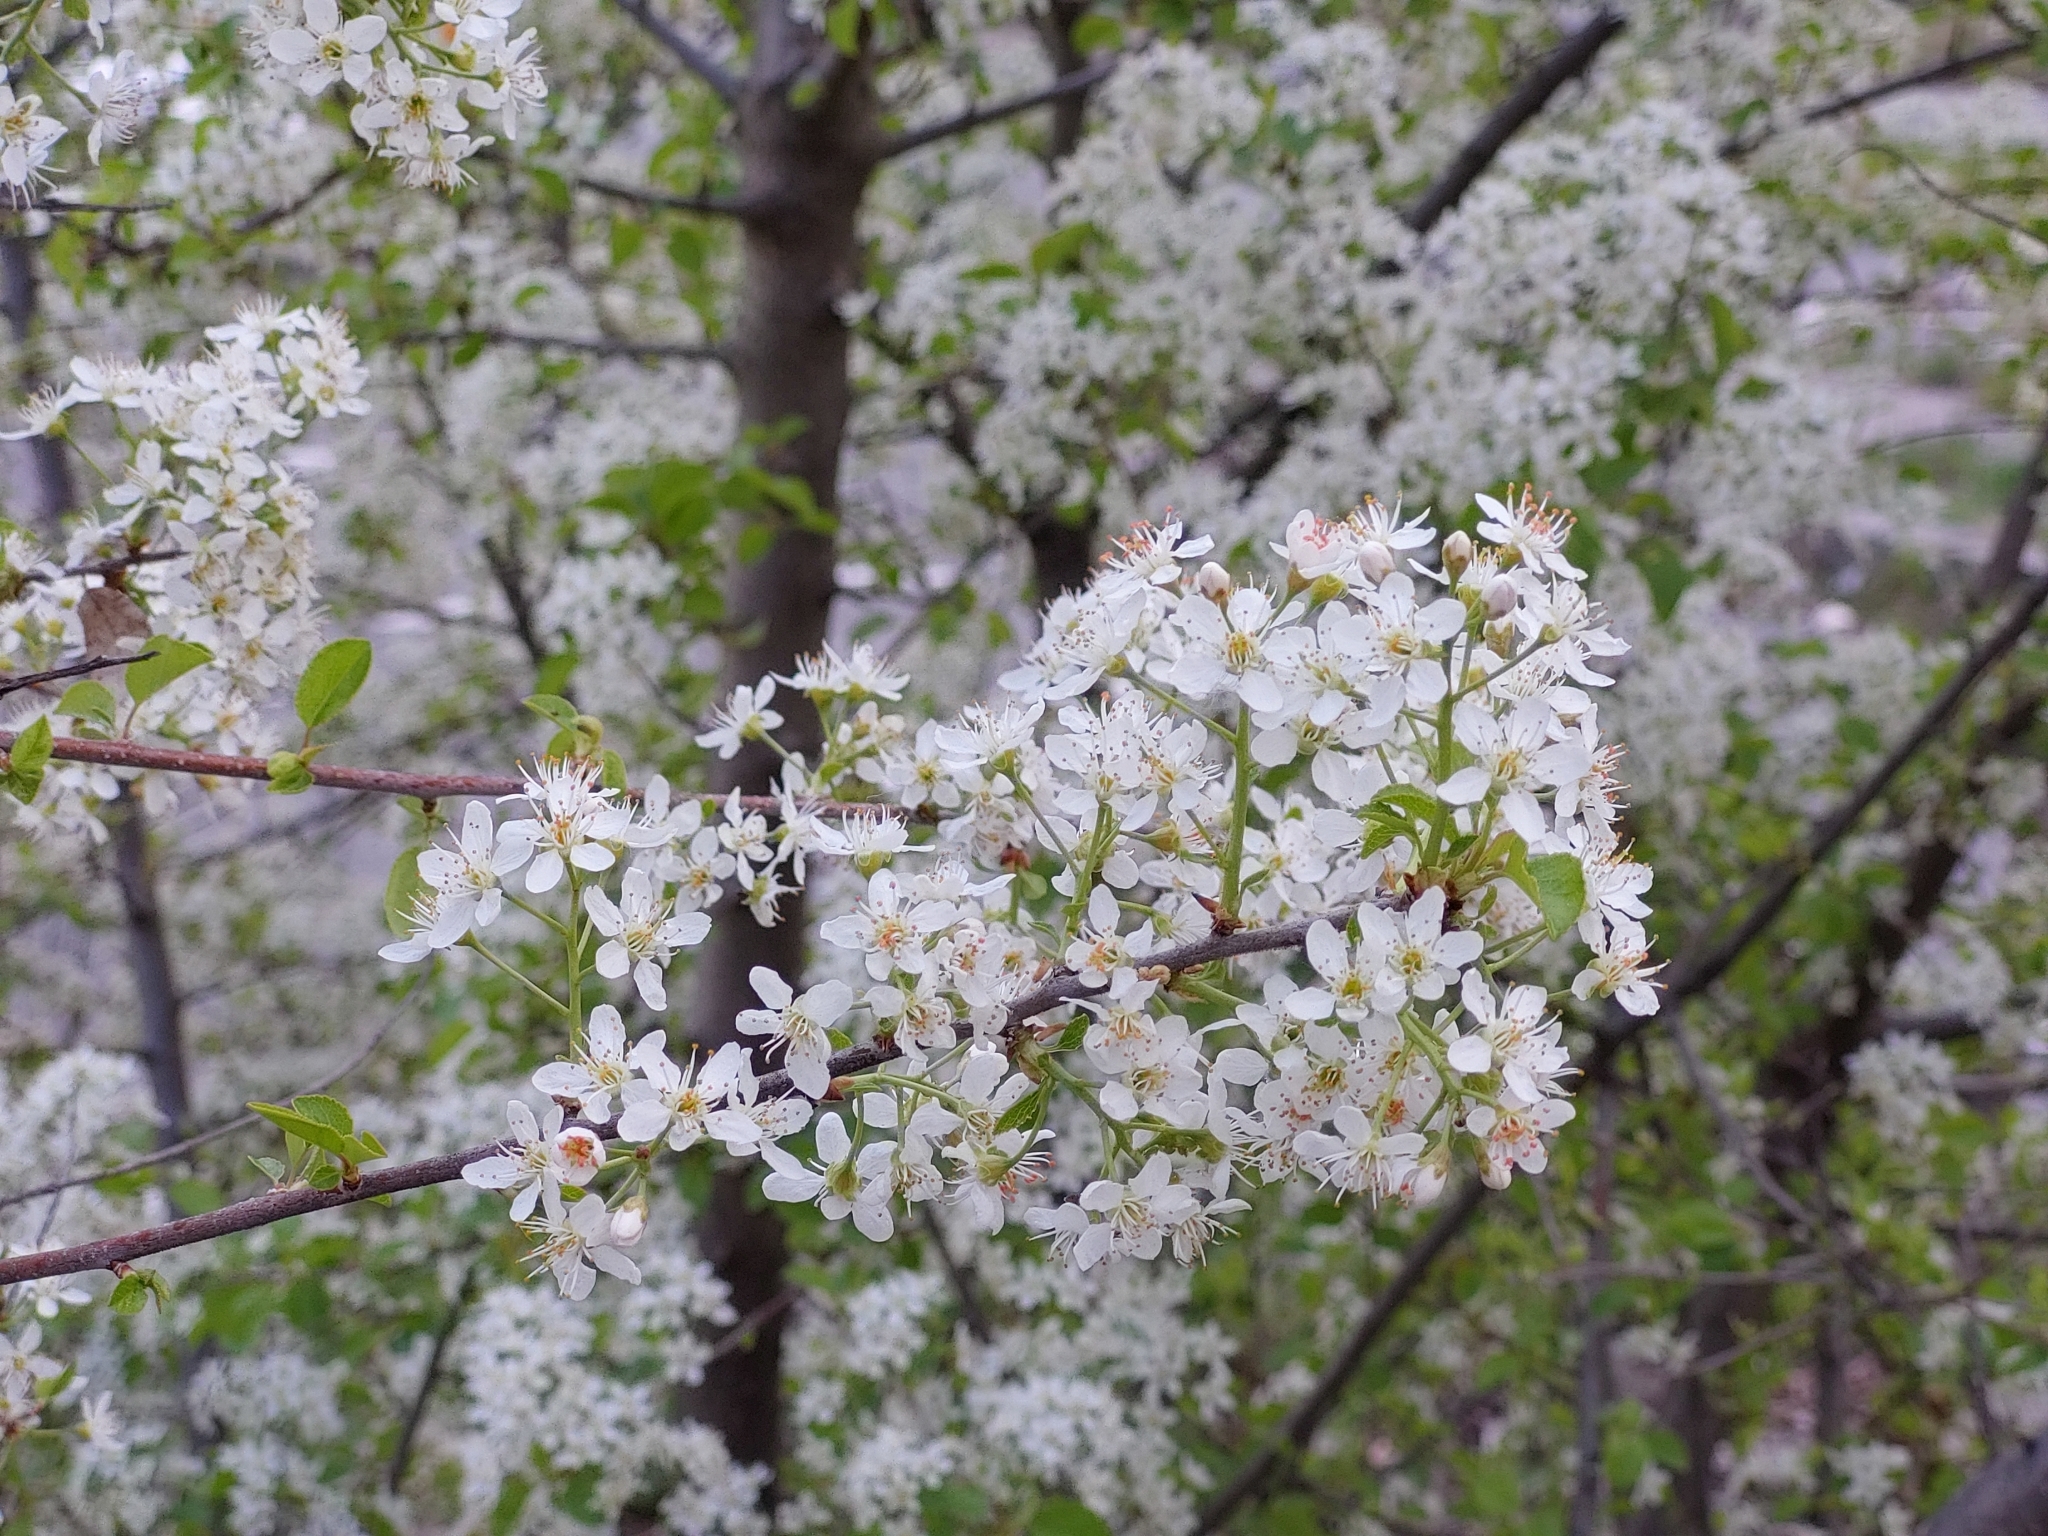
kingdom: Plantae
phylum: Tracheophyta
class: Magnoliopsida
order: Rosales
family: Rosaceae
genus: Prunus
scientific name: Prunus mahaleb
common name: Mahaleb cherry
